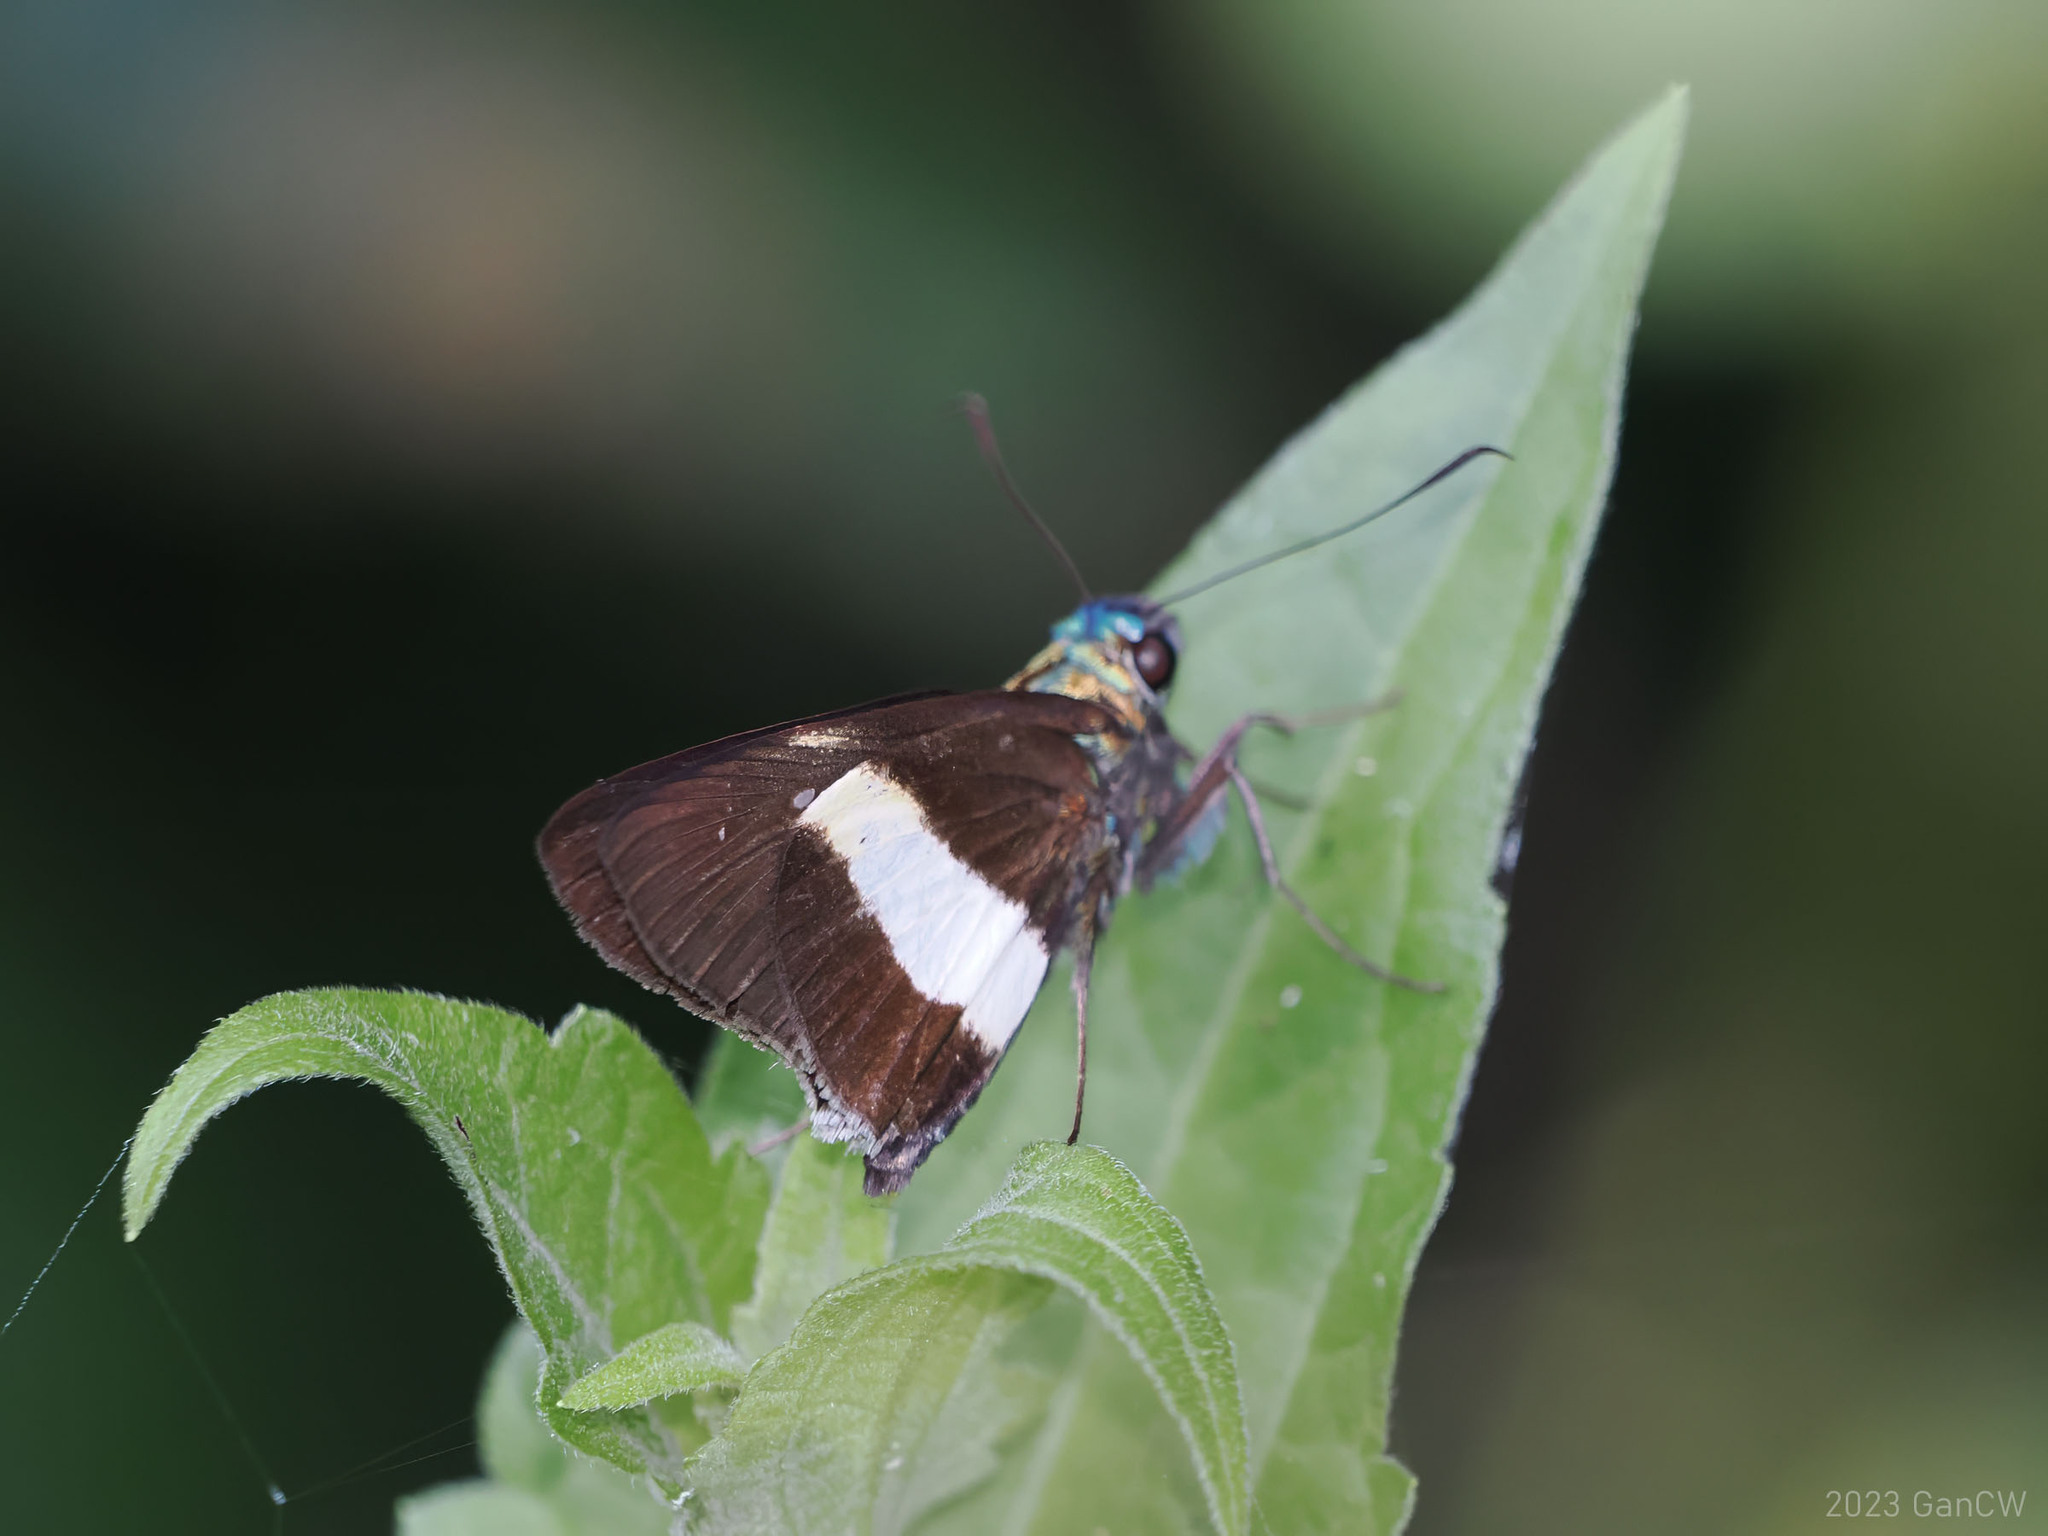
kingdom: Animalia
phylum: Arthropoda
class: Insecta
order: Lepidoptera
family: Hesperiidae
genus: Acerbas
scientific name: Acerbas duris
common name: Banded palmer
